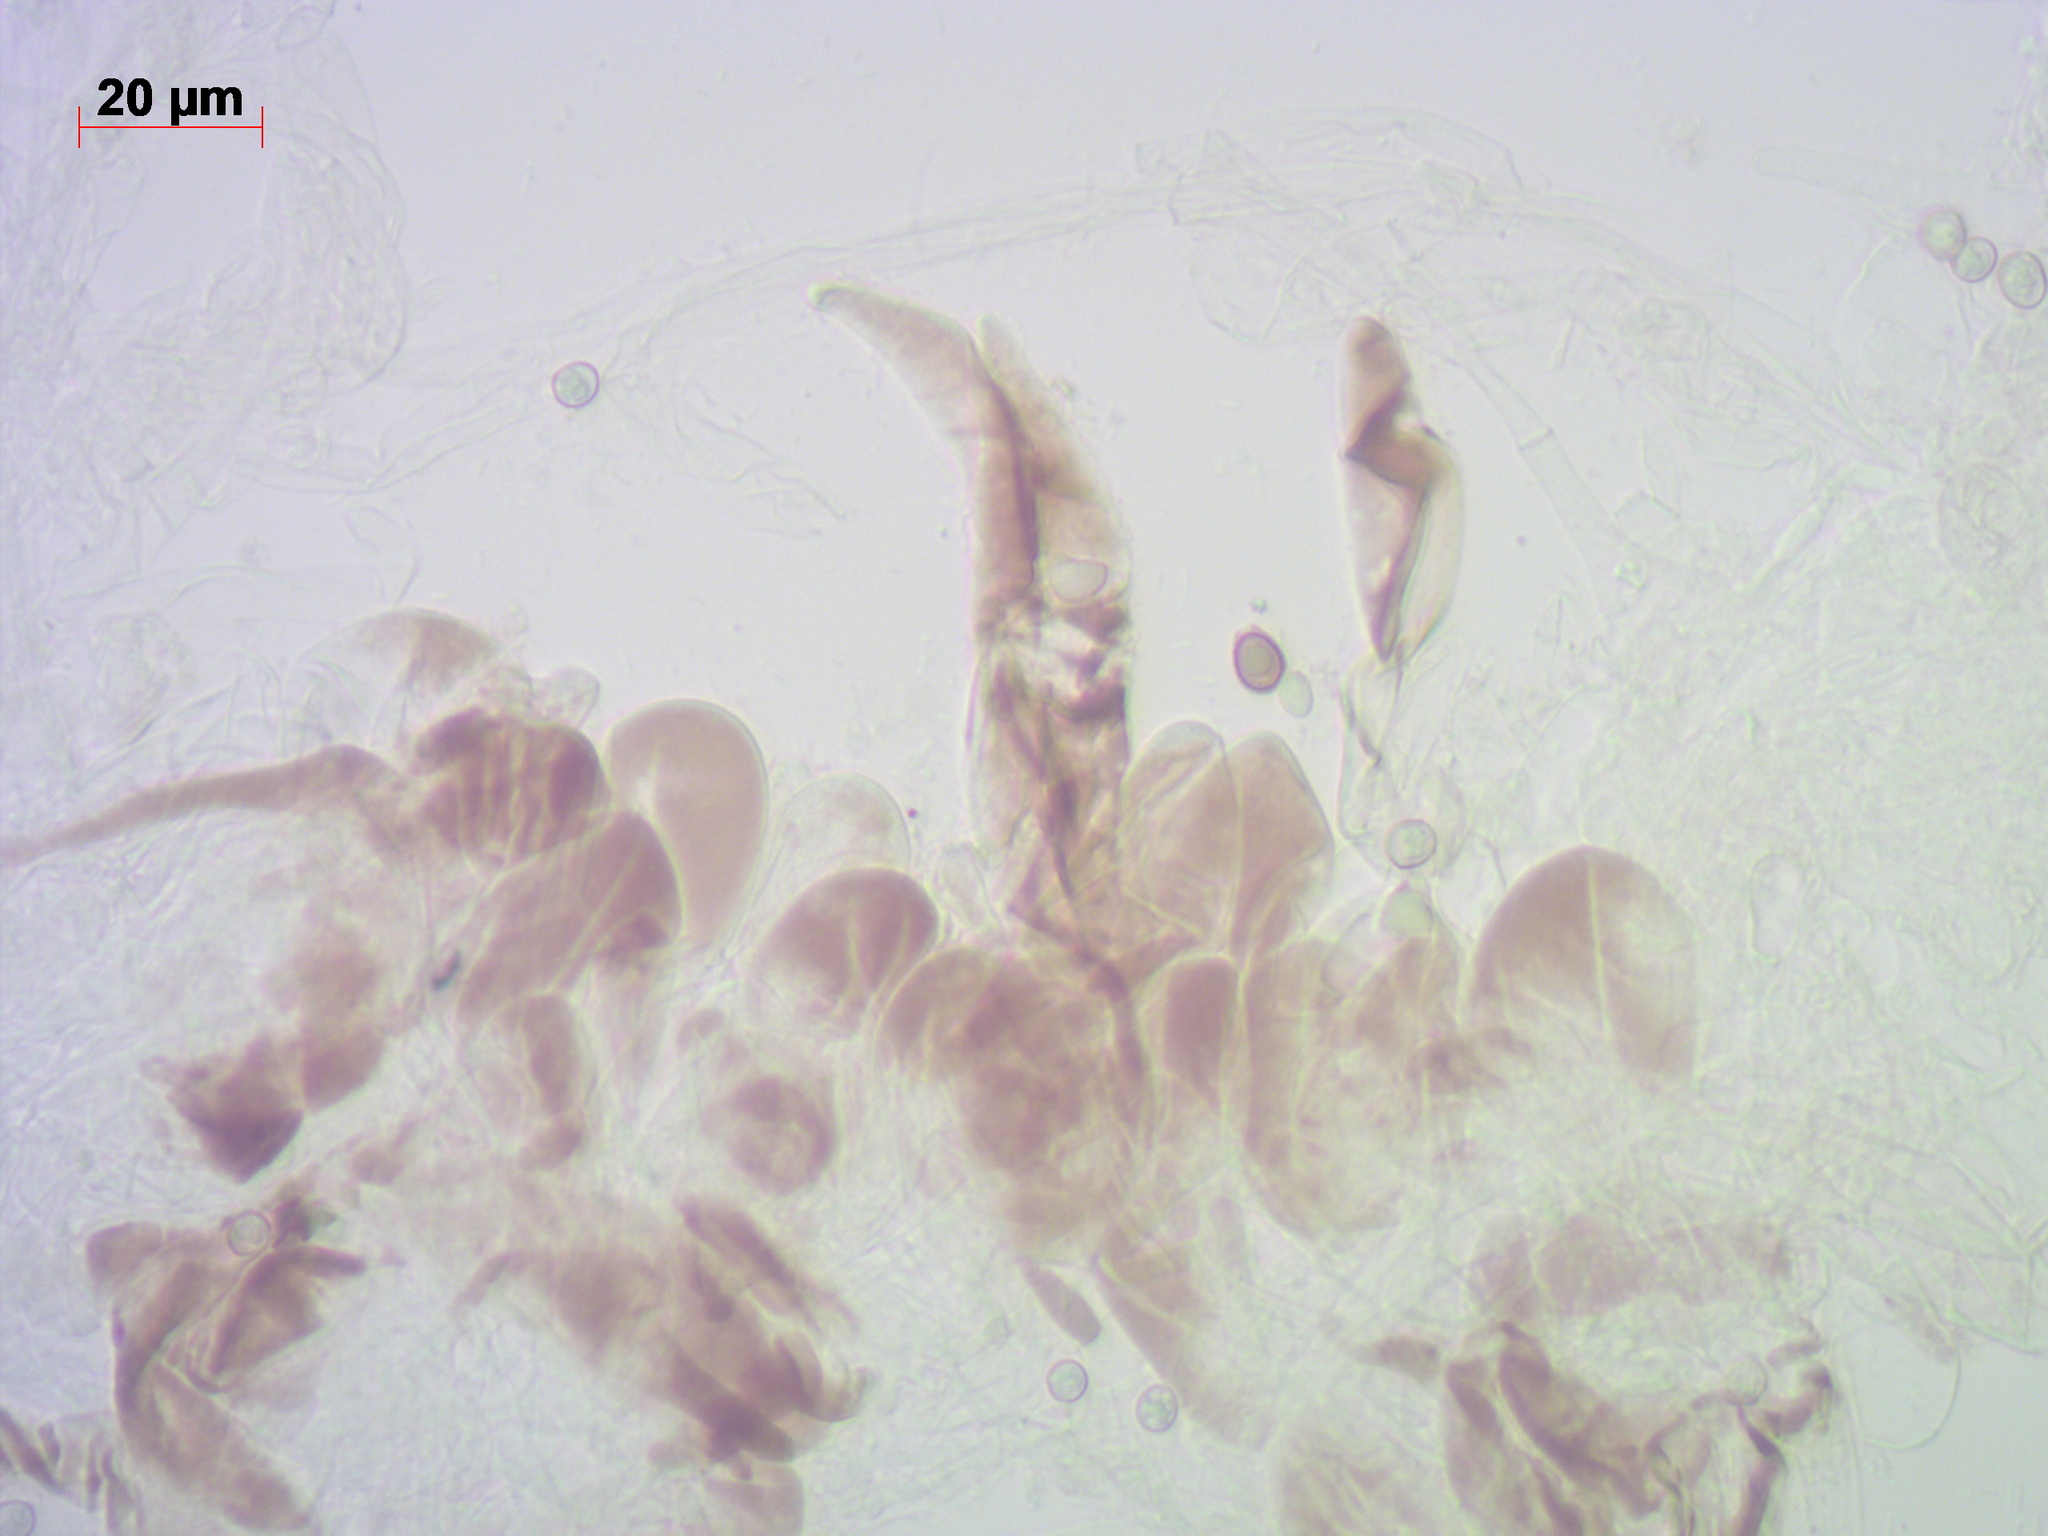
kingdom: Fungi
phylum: Basidiomycota
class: Agaricomycetes
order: Agaricales
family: Pluteaceae
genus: Pluteus
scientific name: Pluteus podospileus
